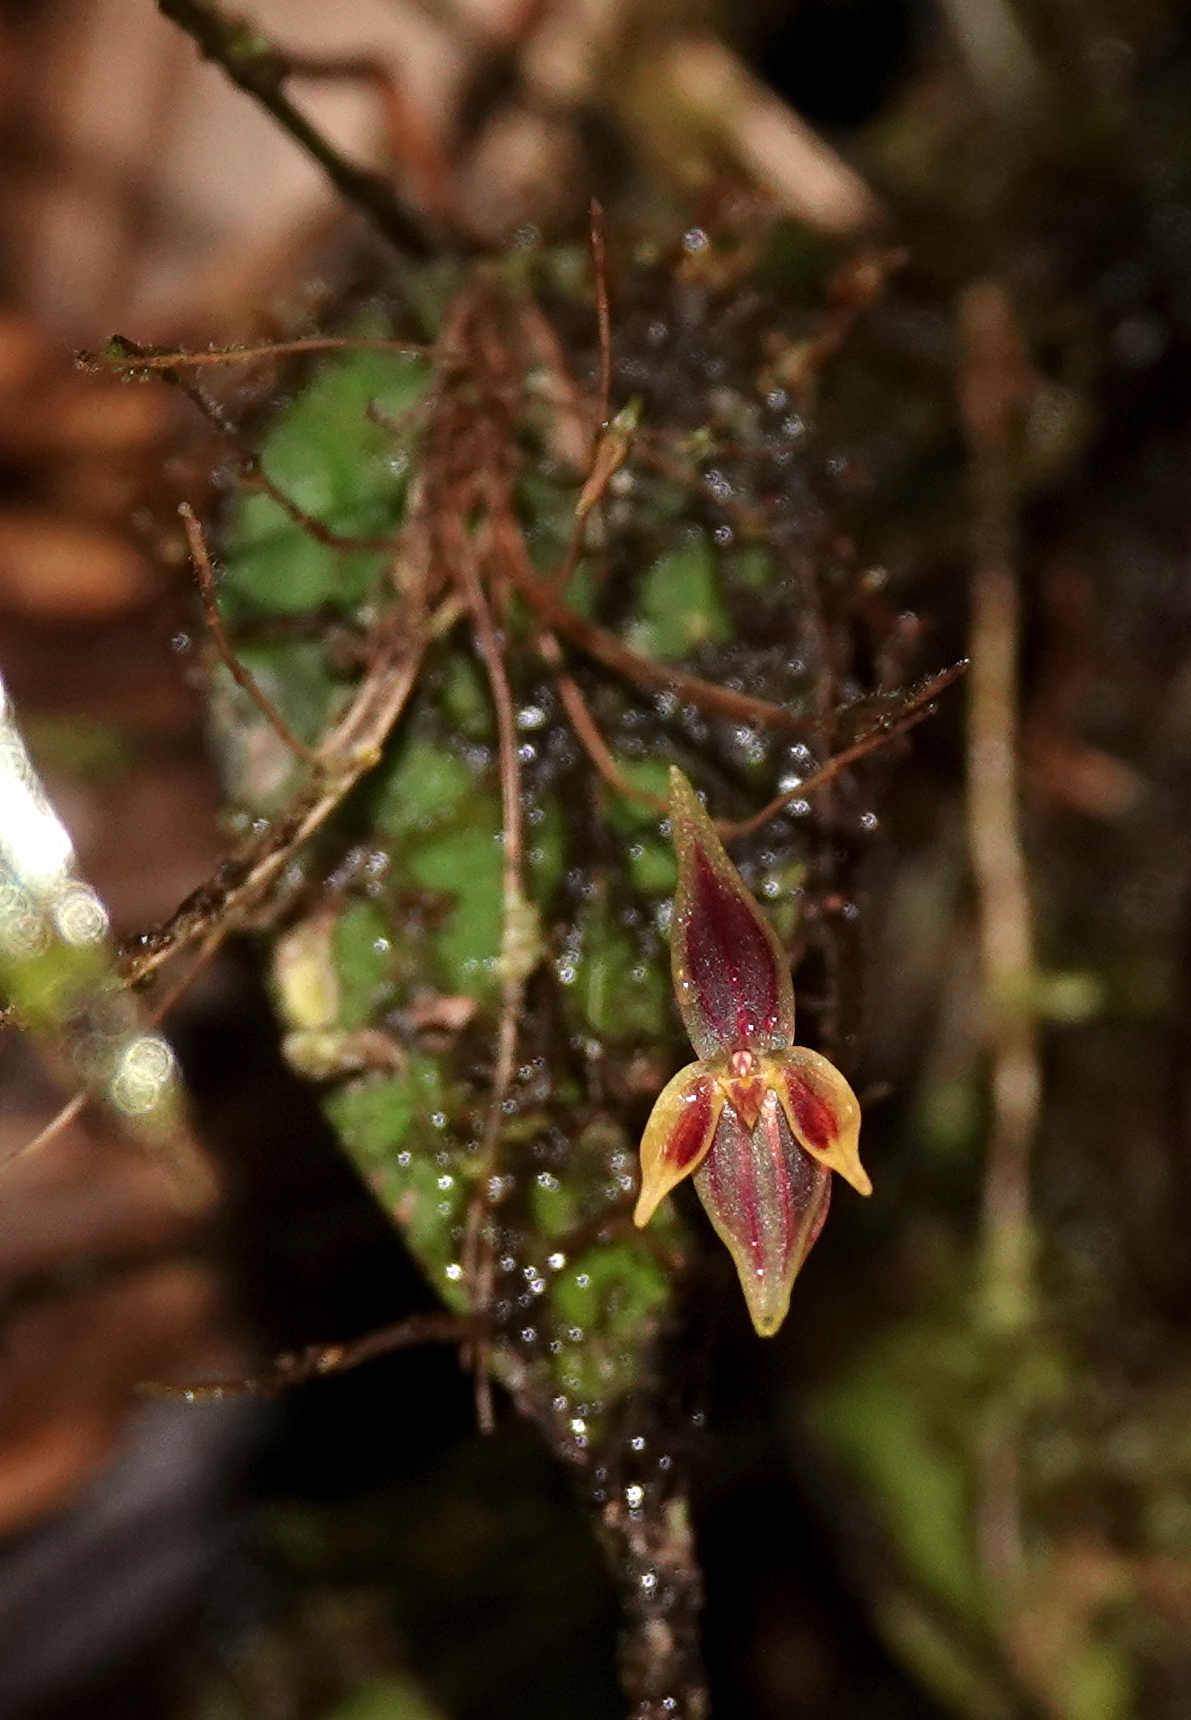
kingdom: Plantae
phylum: Tracheophyta
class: Liliopsida
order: Asparagales
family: Orchidaceae
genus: Pleurothallis
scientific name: Pleurothallis orecta
